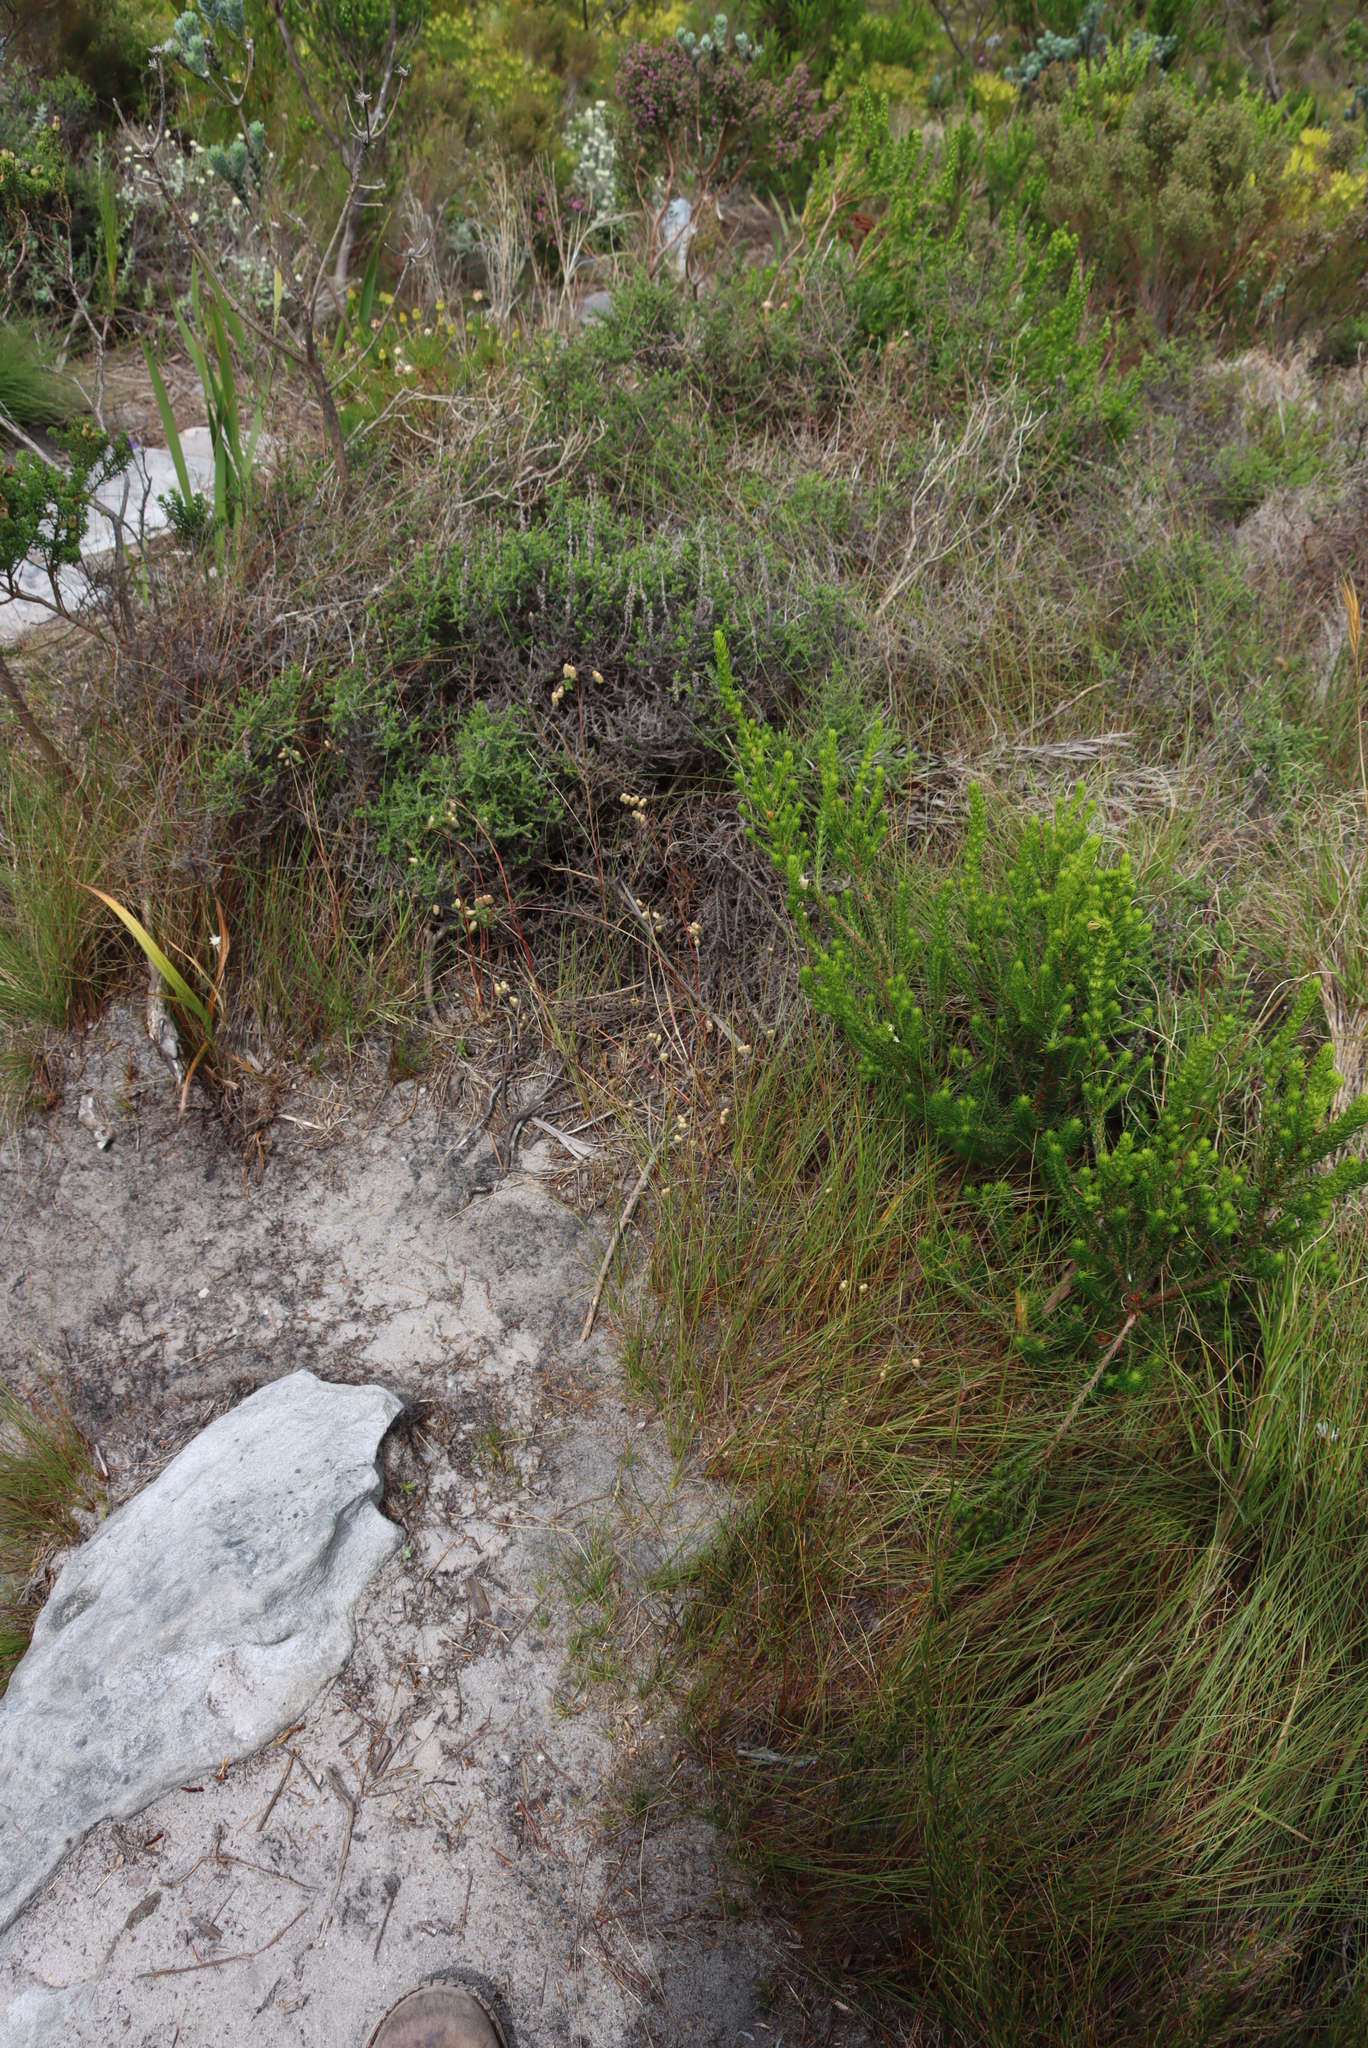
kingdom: Plantae
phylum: Tracheophyta
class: Liliopsida
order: Poales
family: Poaceae
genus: Briza
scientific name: Briza maxima
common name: Big quakinggrass
